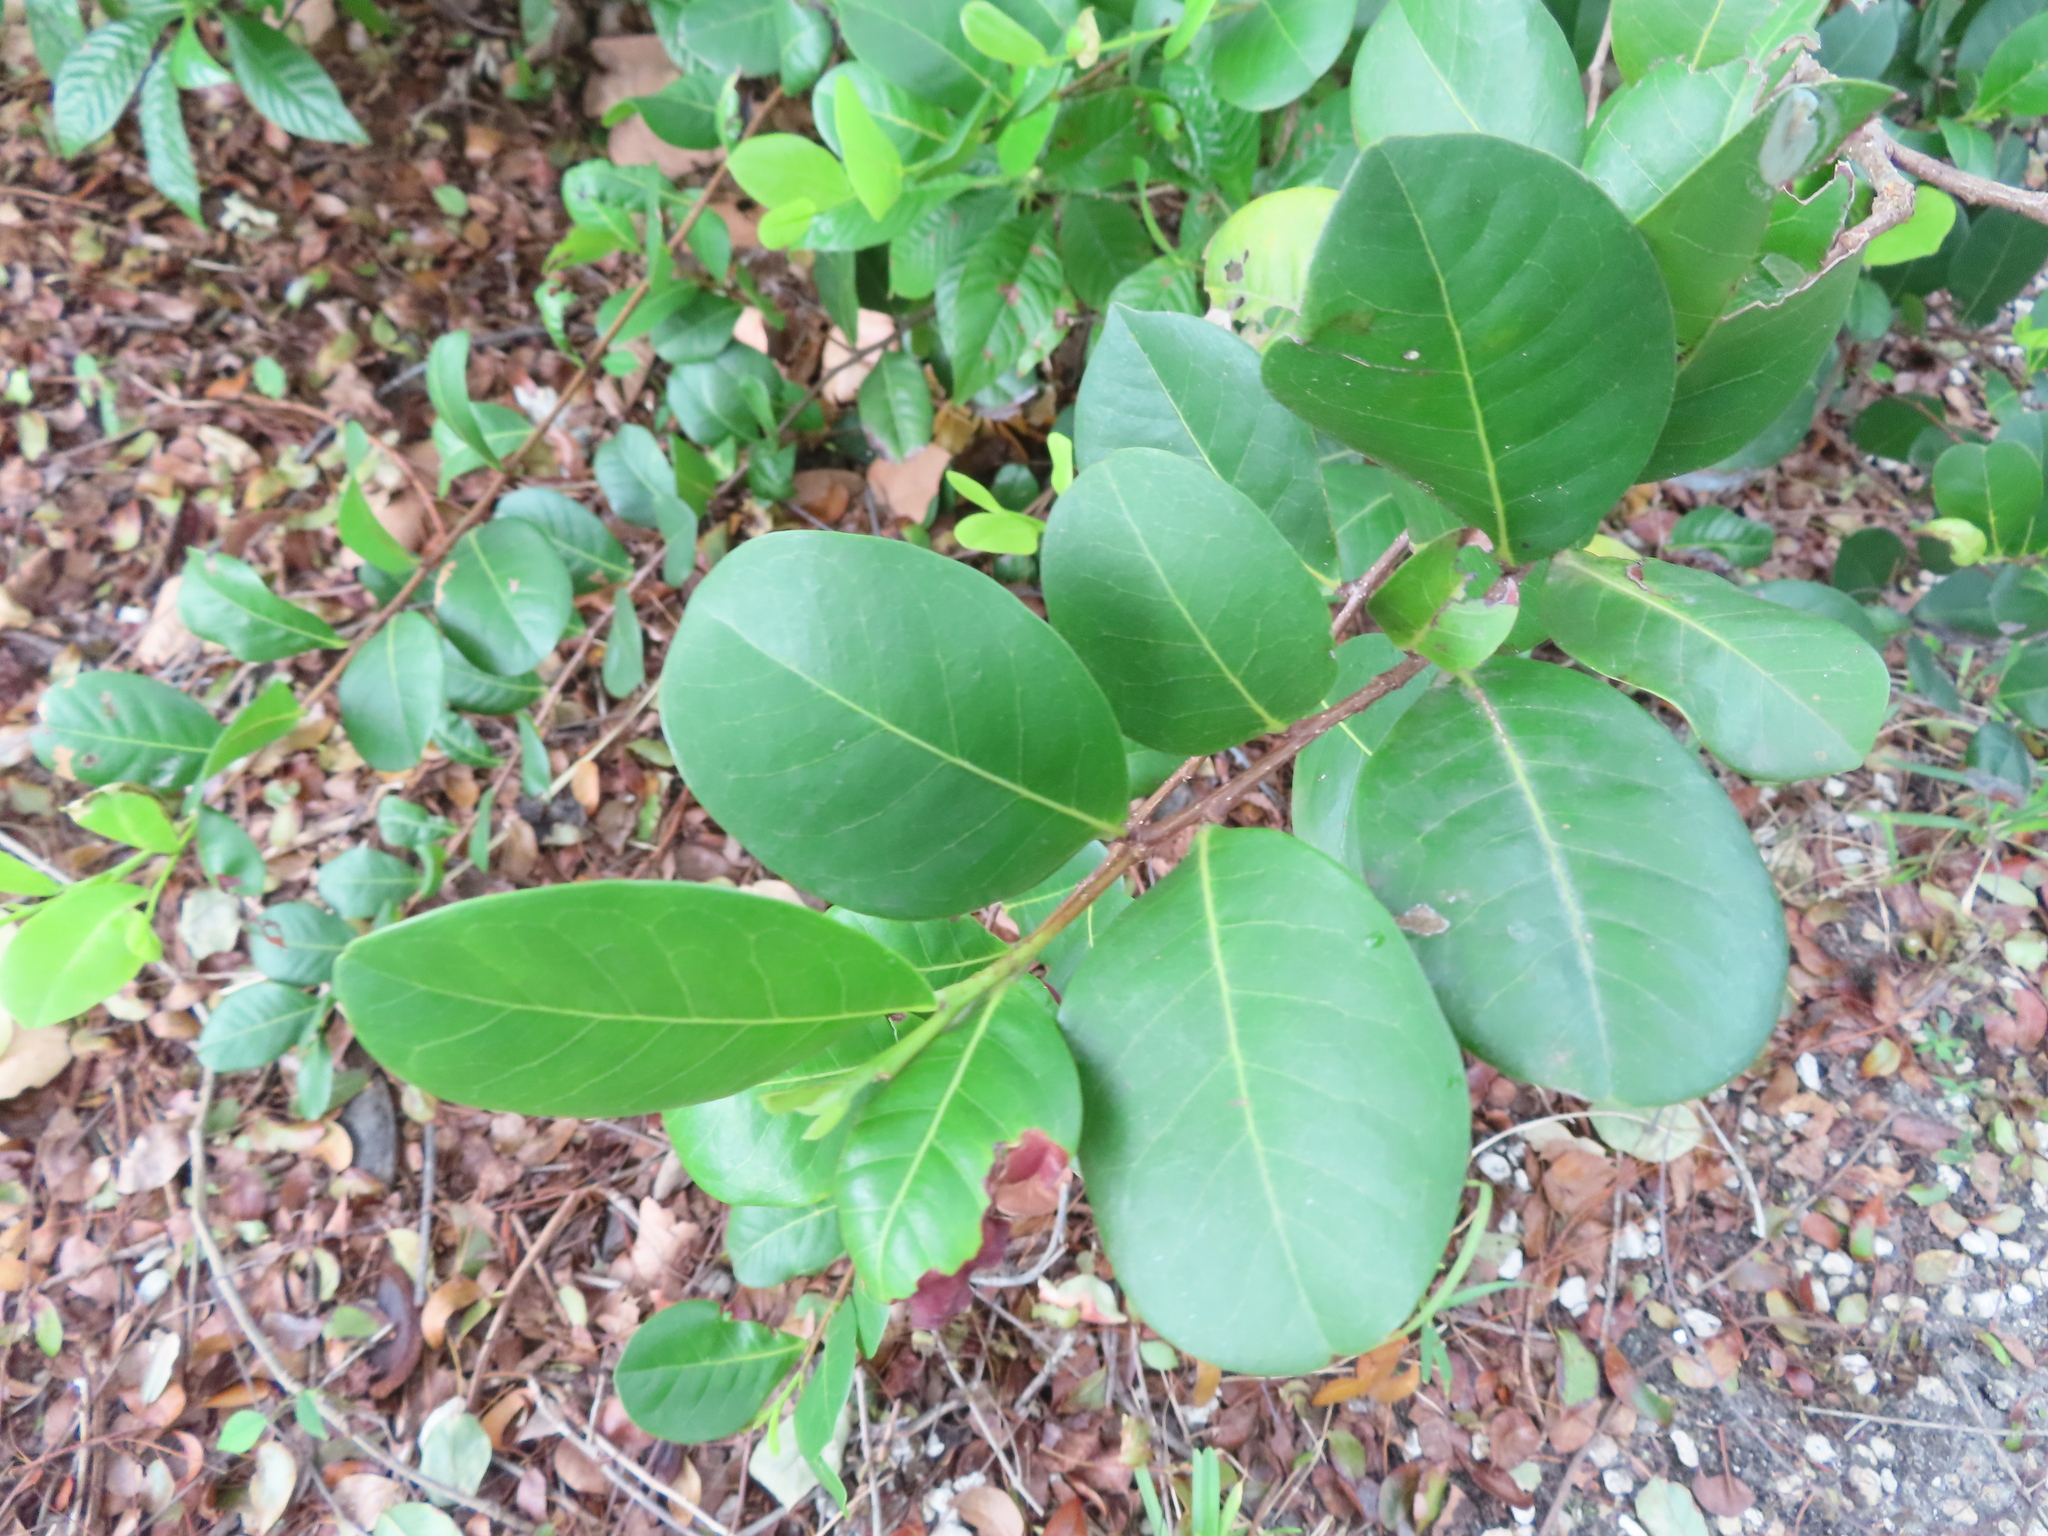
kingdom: Plantae
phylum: Tracheophyta
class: Magnoliopsida
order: Malpighiales
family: Chrysobalanaceae
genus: Chrysobalanus
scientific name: Chrysobalanus icaco
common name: Coco plum
